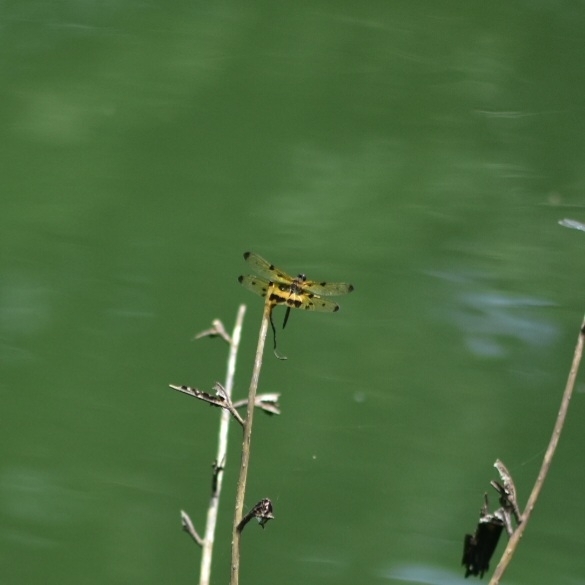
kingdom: Animalia
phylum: Arthropoda
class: Insecta
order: Odonata
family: Libellulidae
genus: Rhyothemis
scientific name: Rhyothemis variegata
